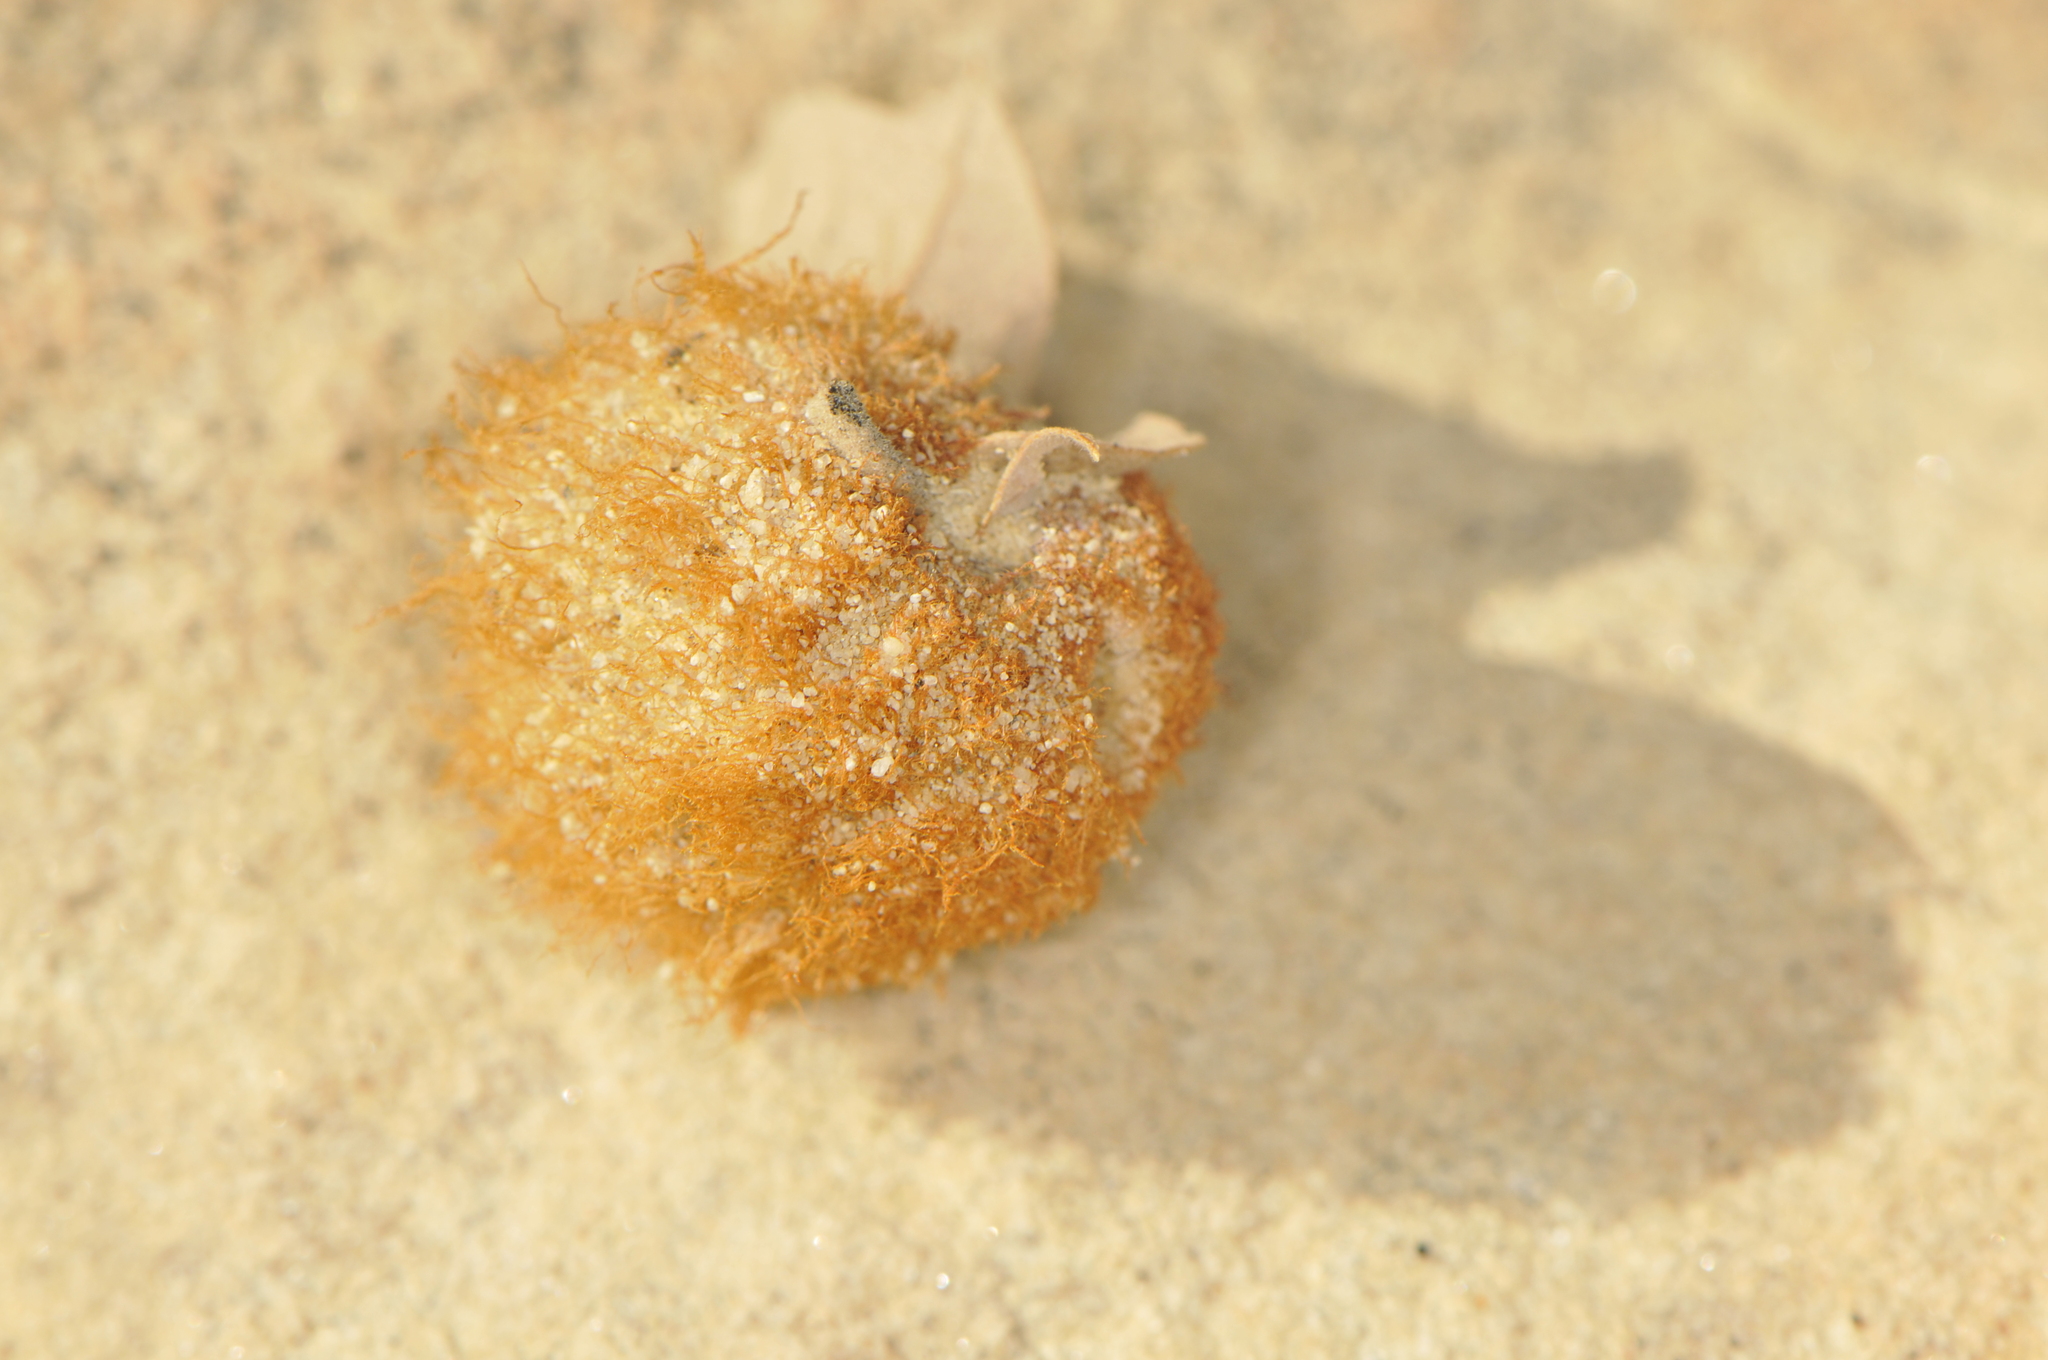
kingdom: Animalia
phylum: Arthropoda
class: Insecta
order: Hymenoptera
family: Cynipidae
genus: Andricus
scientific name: Andricus
